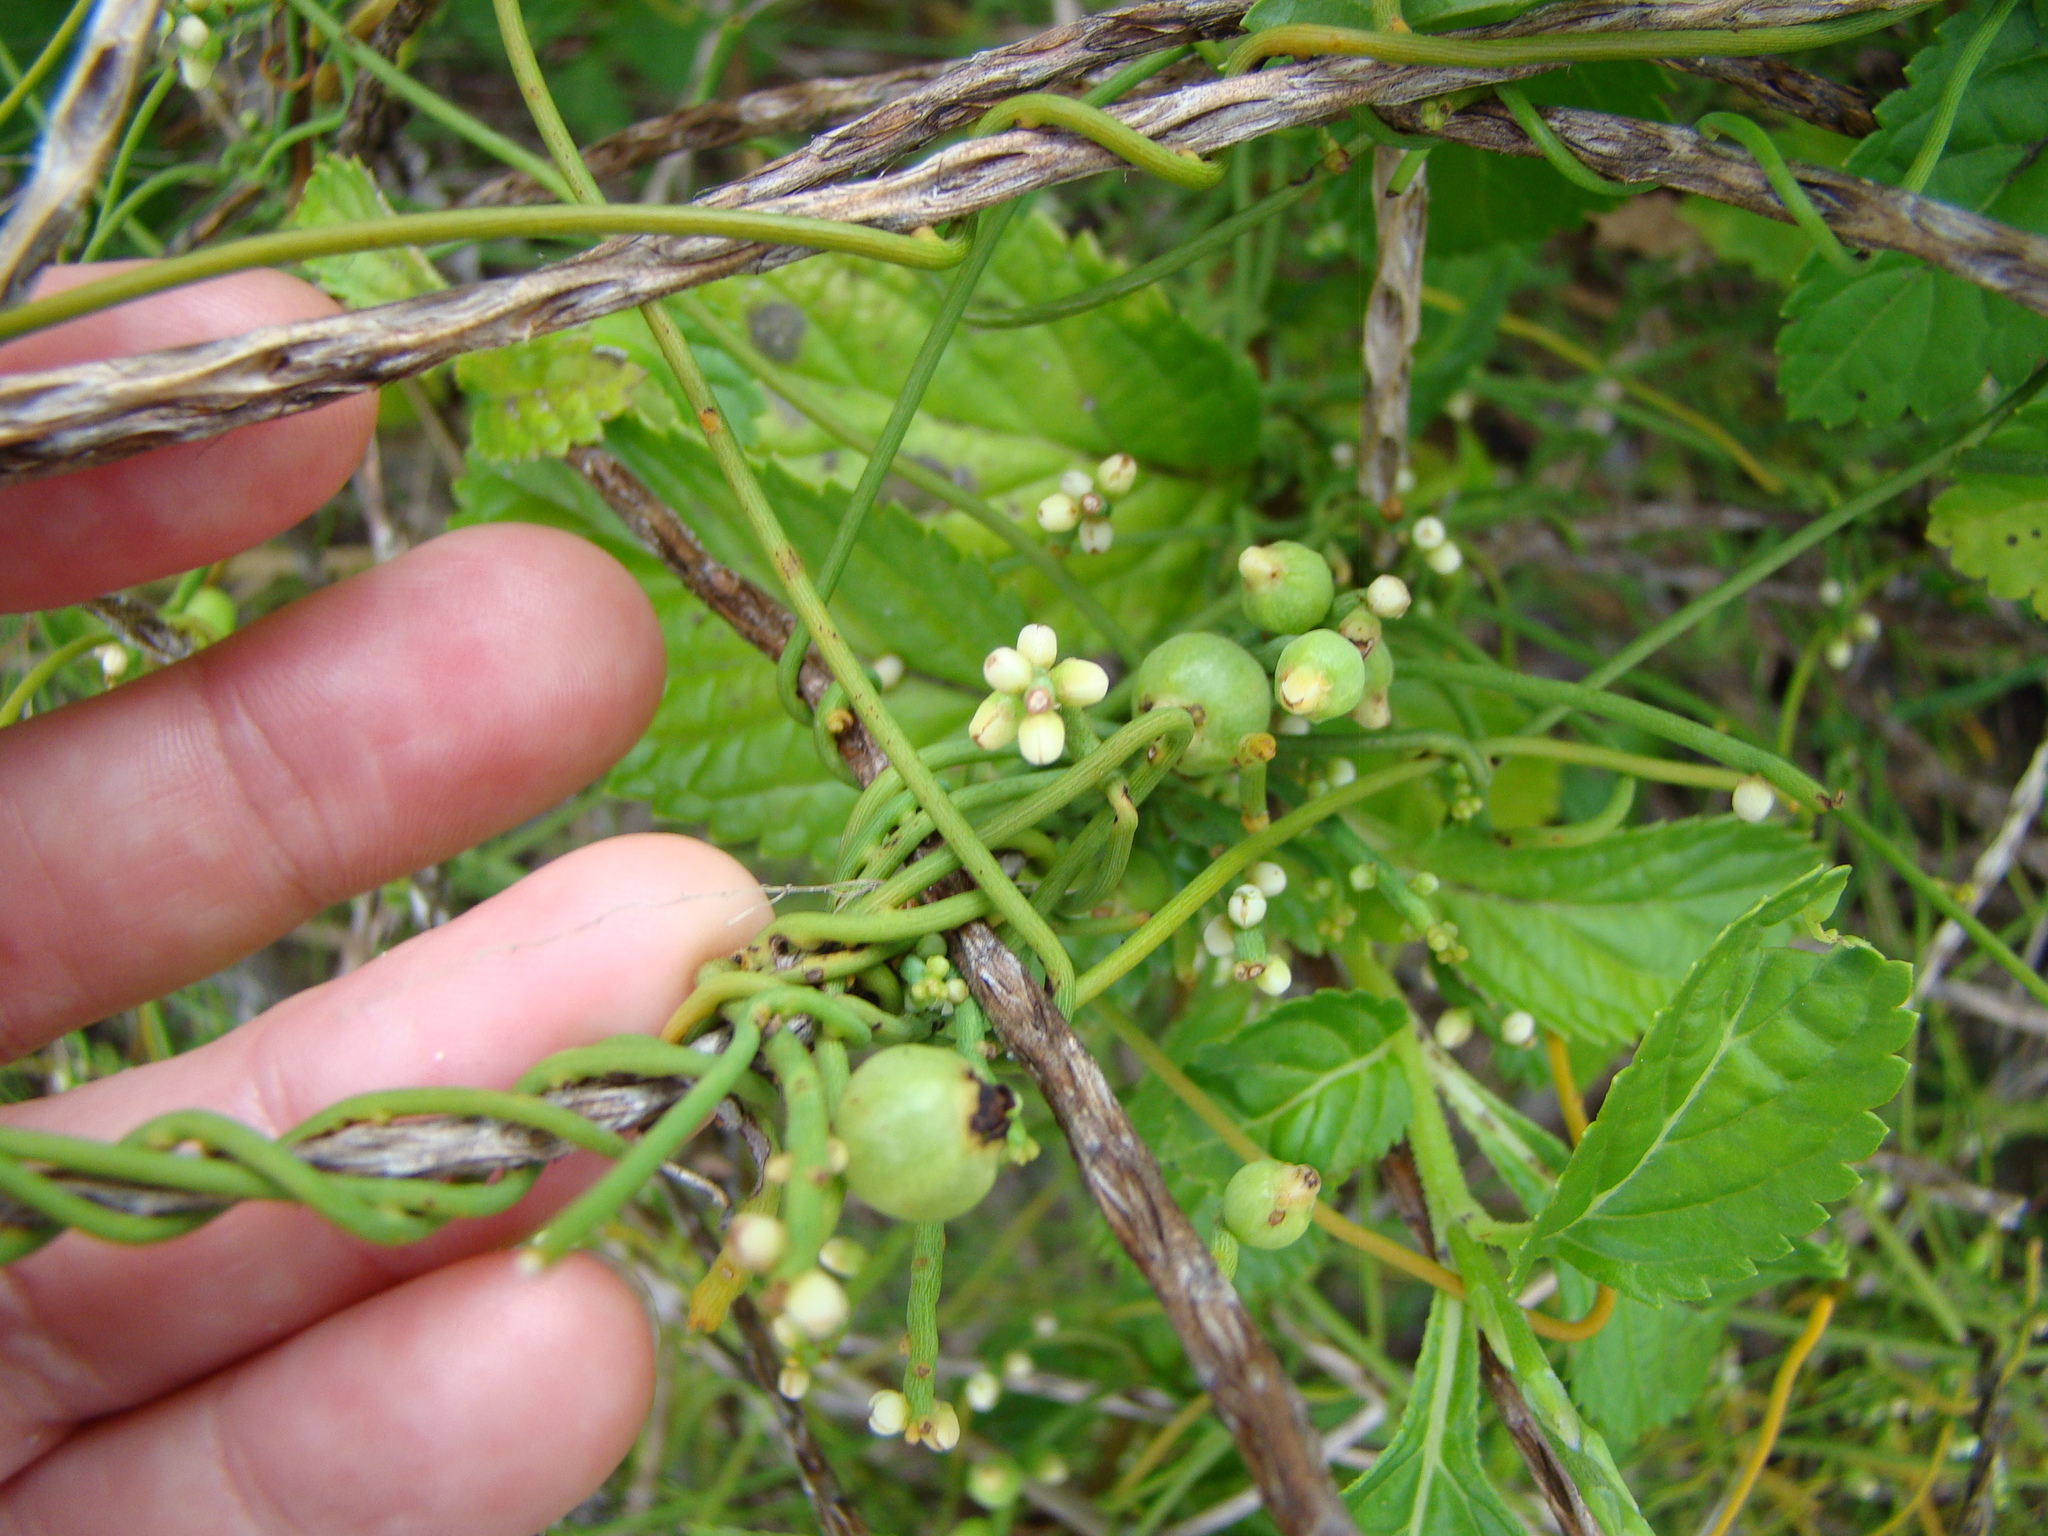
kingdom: Plantae
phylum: Tracheophyta
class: Magnoliopsida
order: Laurales
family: Lauraceae
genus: Cassytha
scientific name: Cassytha filiformis
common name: Dodder-laurel
